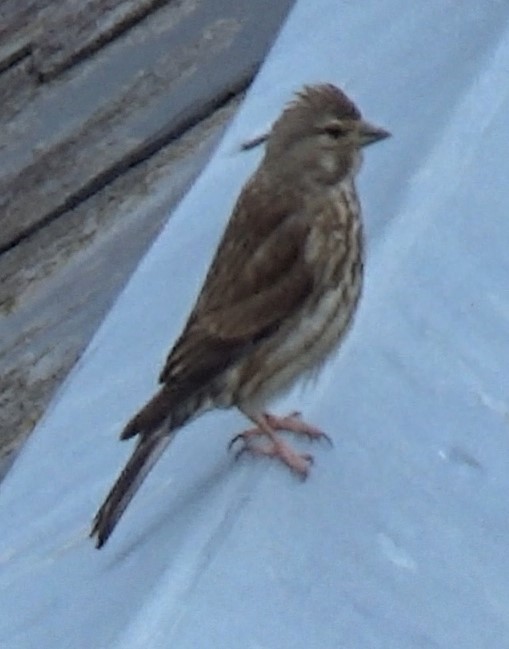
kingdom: Animalia
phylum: Chordata
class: Aves
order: Passeriformes
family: Fringillidae
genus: Linaria
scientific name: Linaria cannabina
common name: Common linnet
